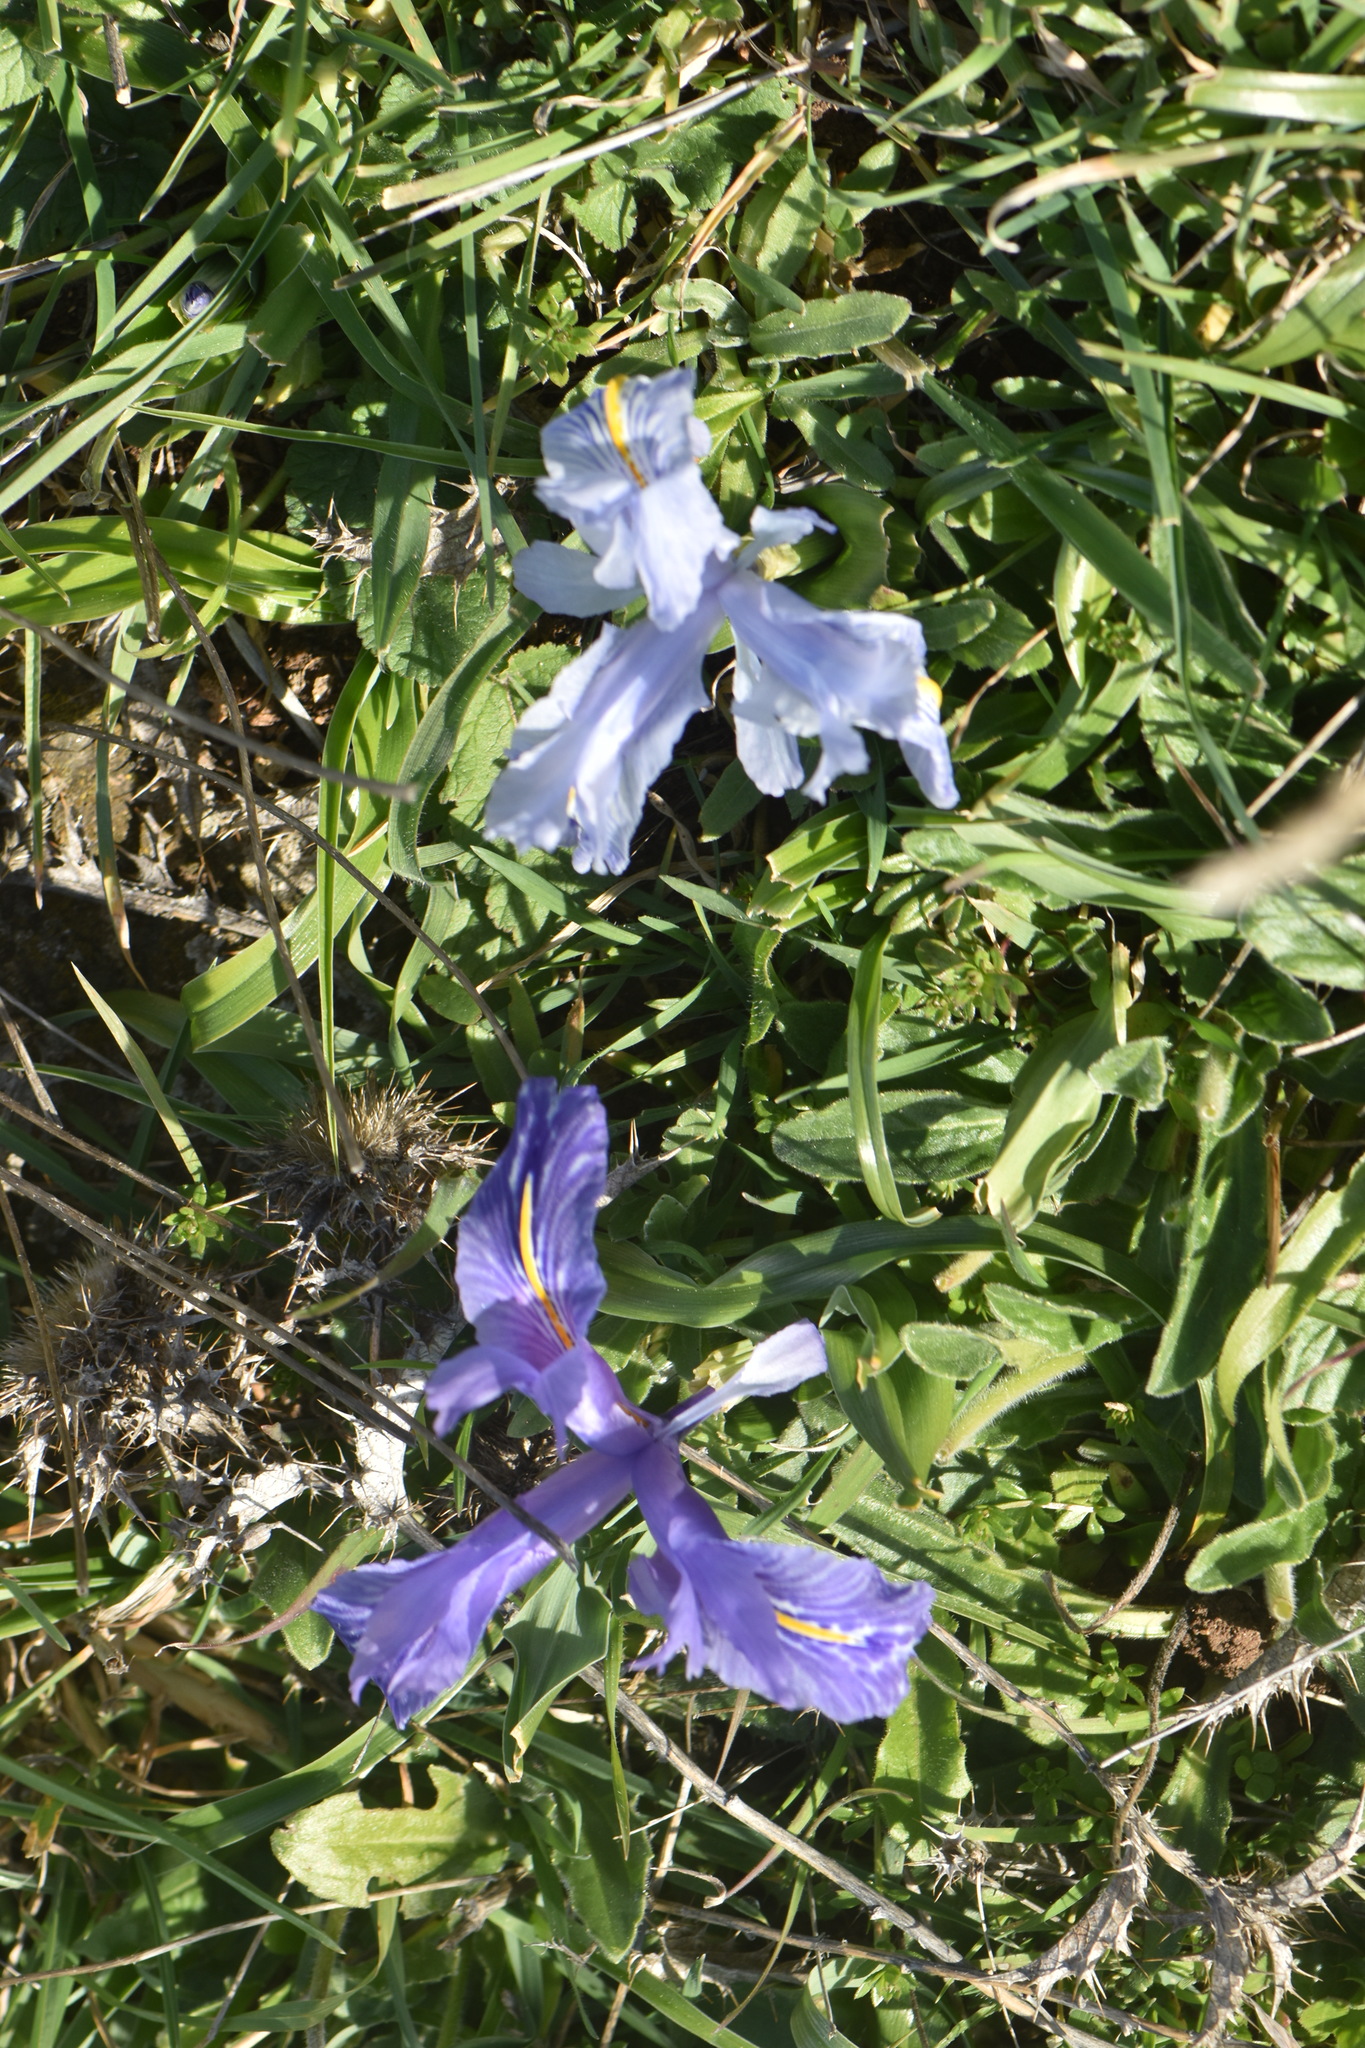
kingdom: Plantae
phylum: Tracheophyta
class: Liliopsida
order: Asparagales
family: Iridaceae
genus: Iris
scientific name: Iris planifolia
